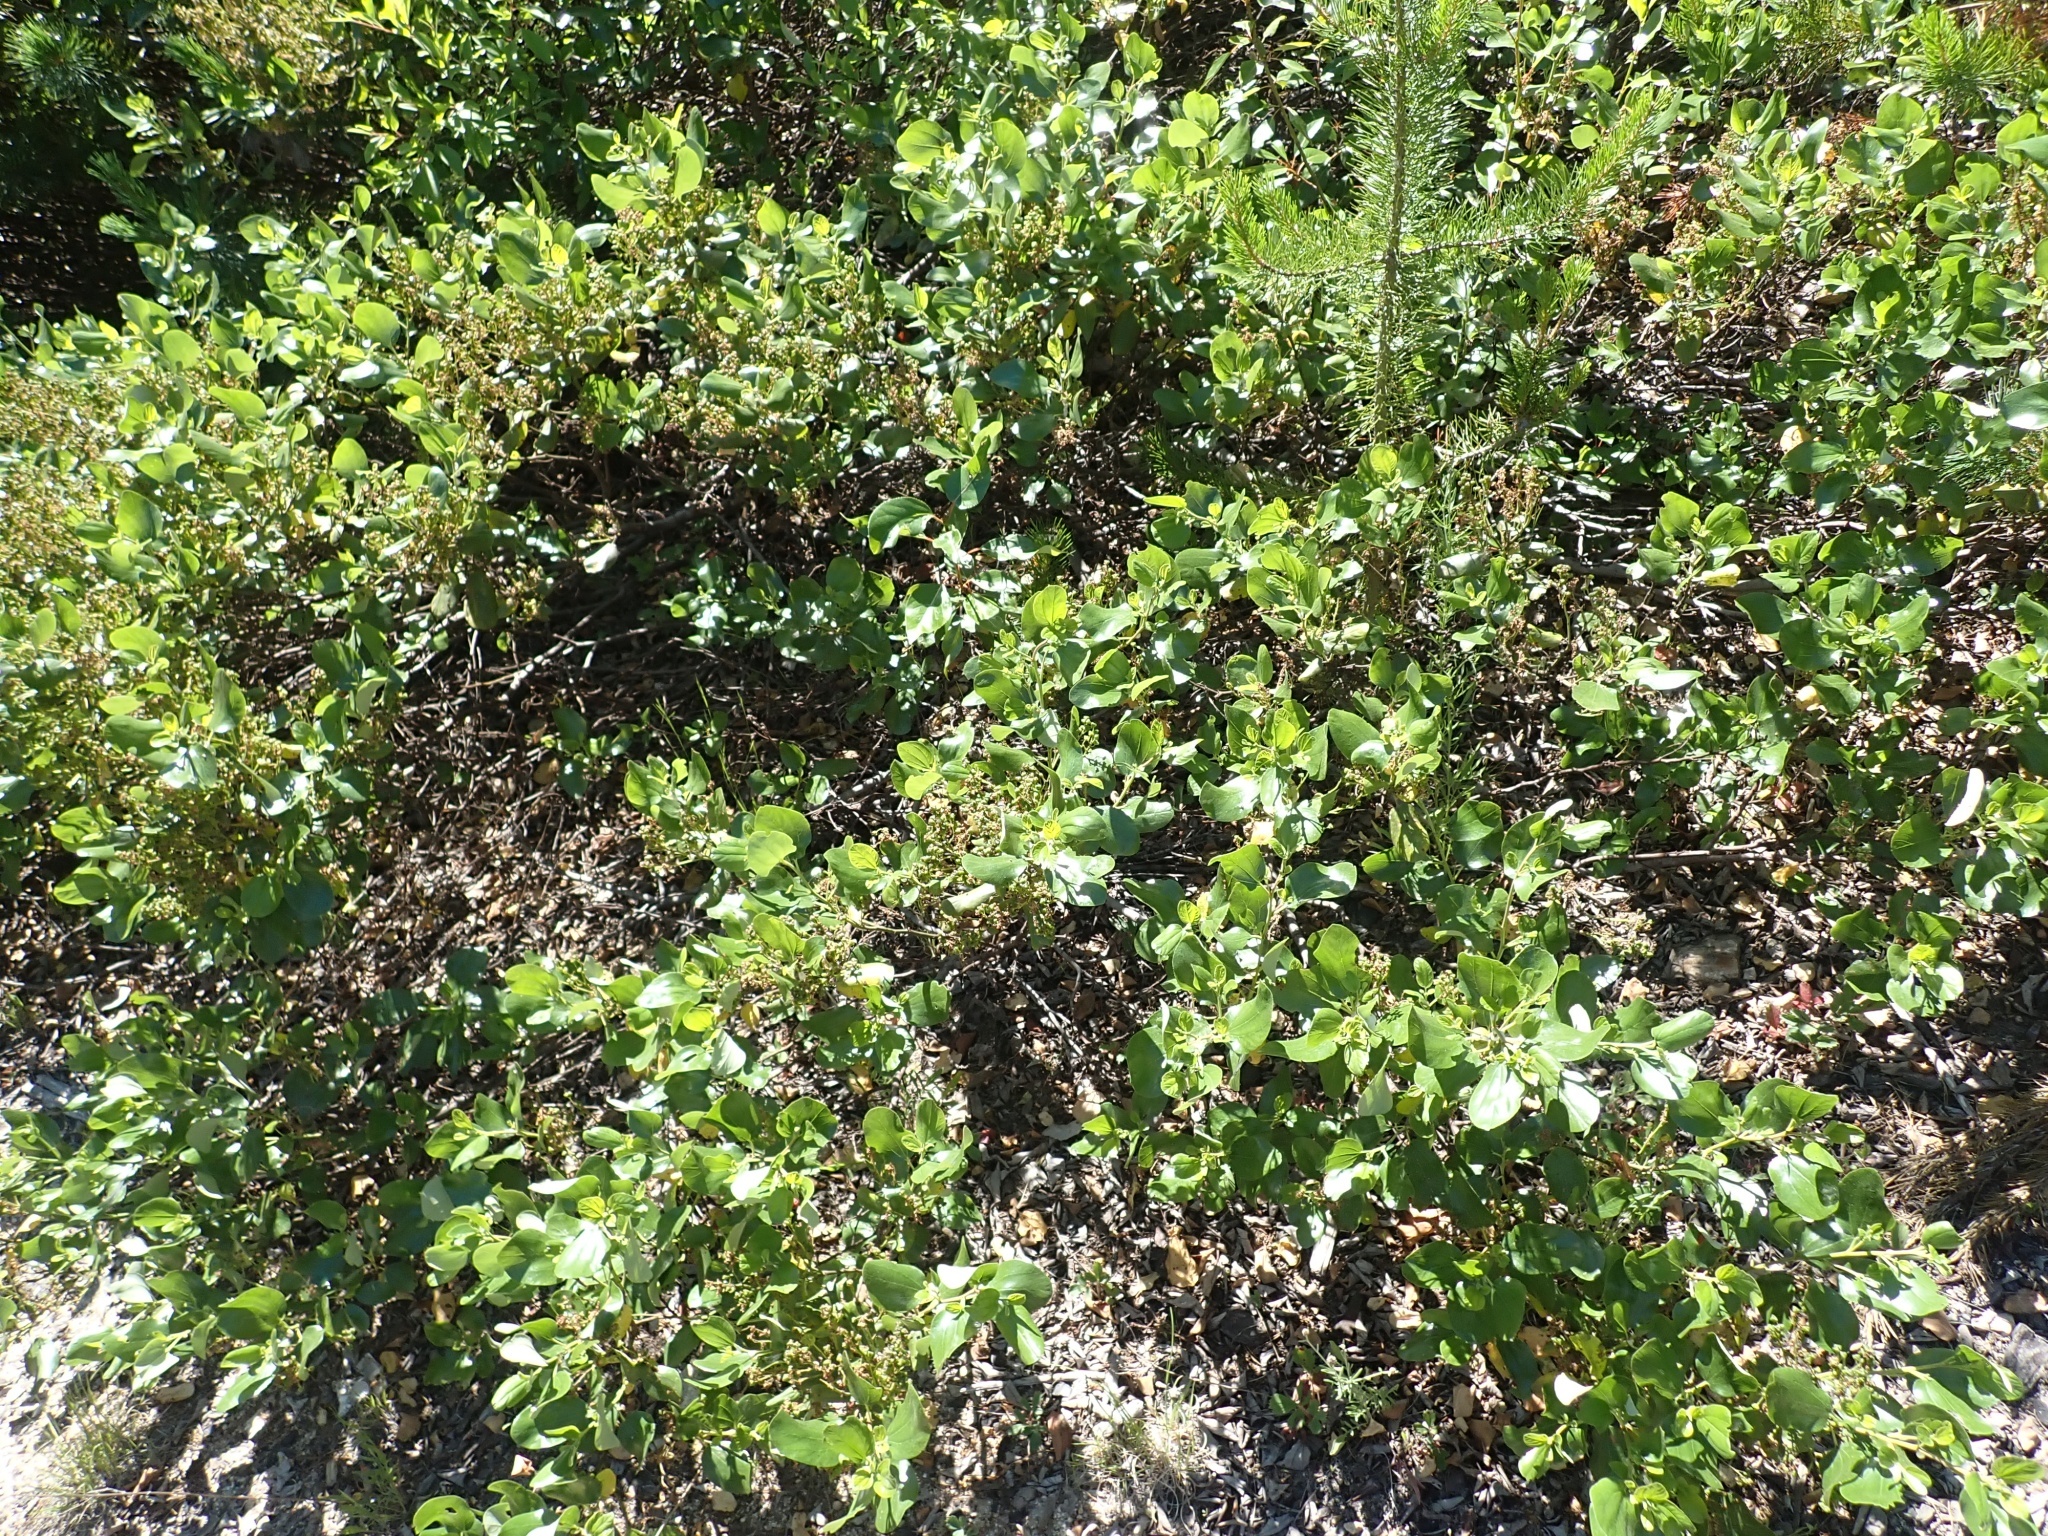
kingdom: Plantae
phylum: Tracheophyta
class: Magnoliopsida
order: Rosales
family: Rhamnaceae
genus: Ceanothus
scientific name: Ceanothus velutinus
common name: Snowbrush
